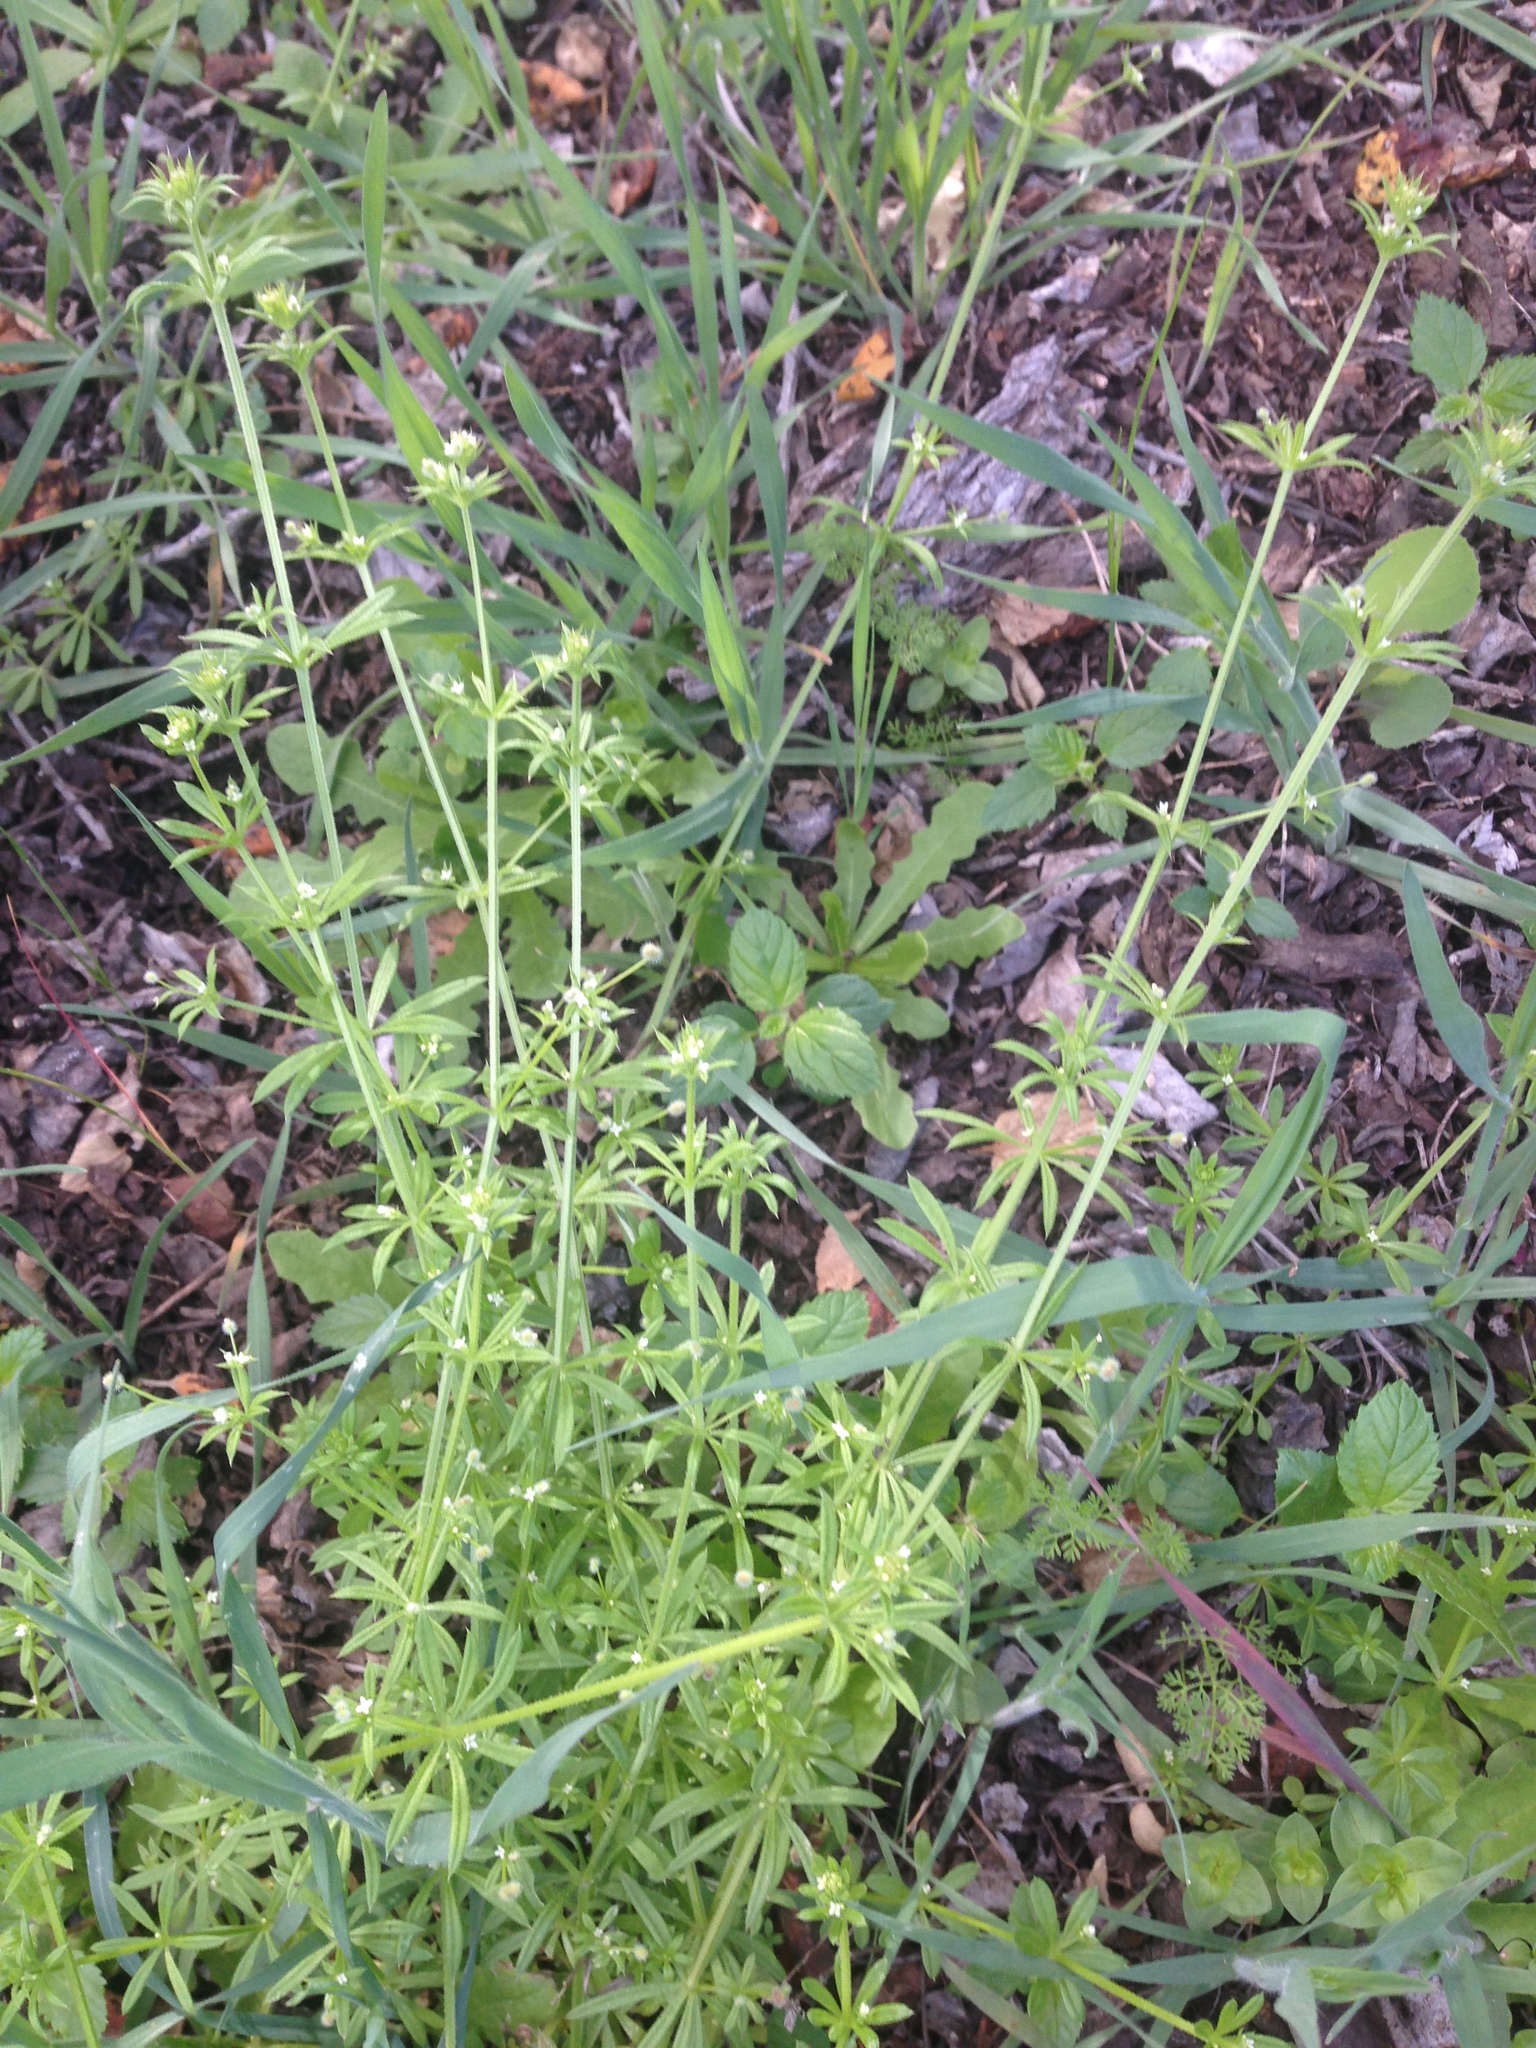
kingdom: Plantae
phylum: Tracheophyta
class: Magnoliopsida
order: Gentianales
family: Rubiaceae
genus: Galium
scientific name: Galium aparine
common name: Cleavers
